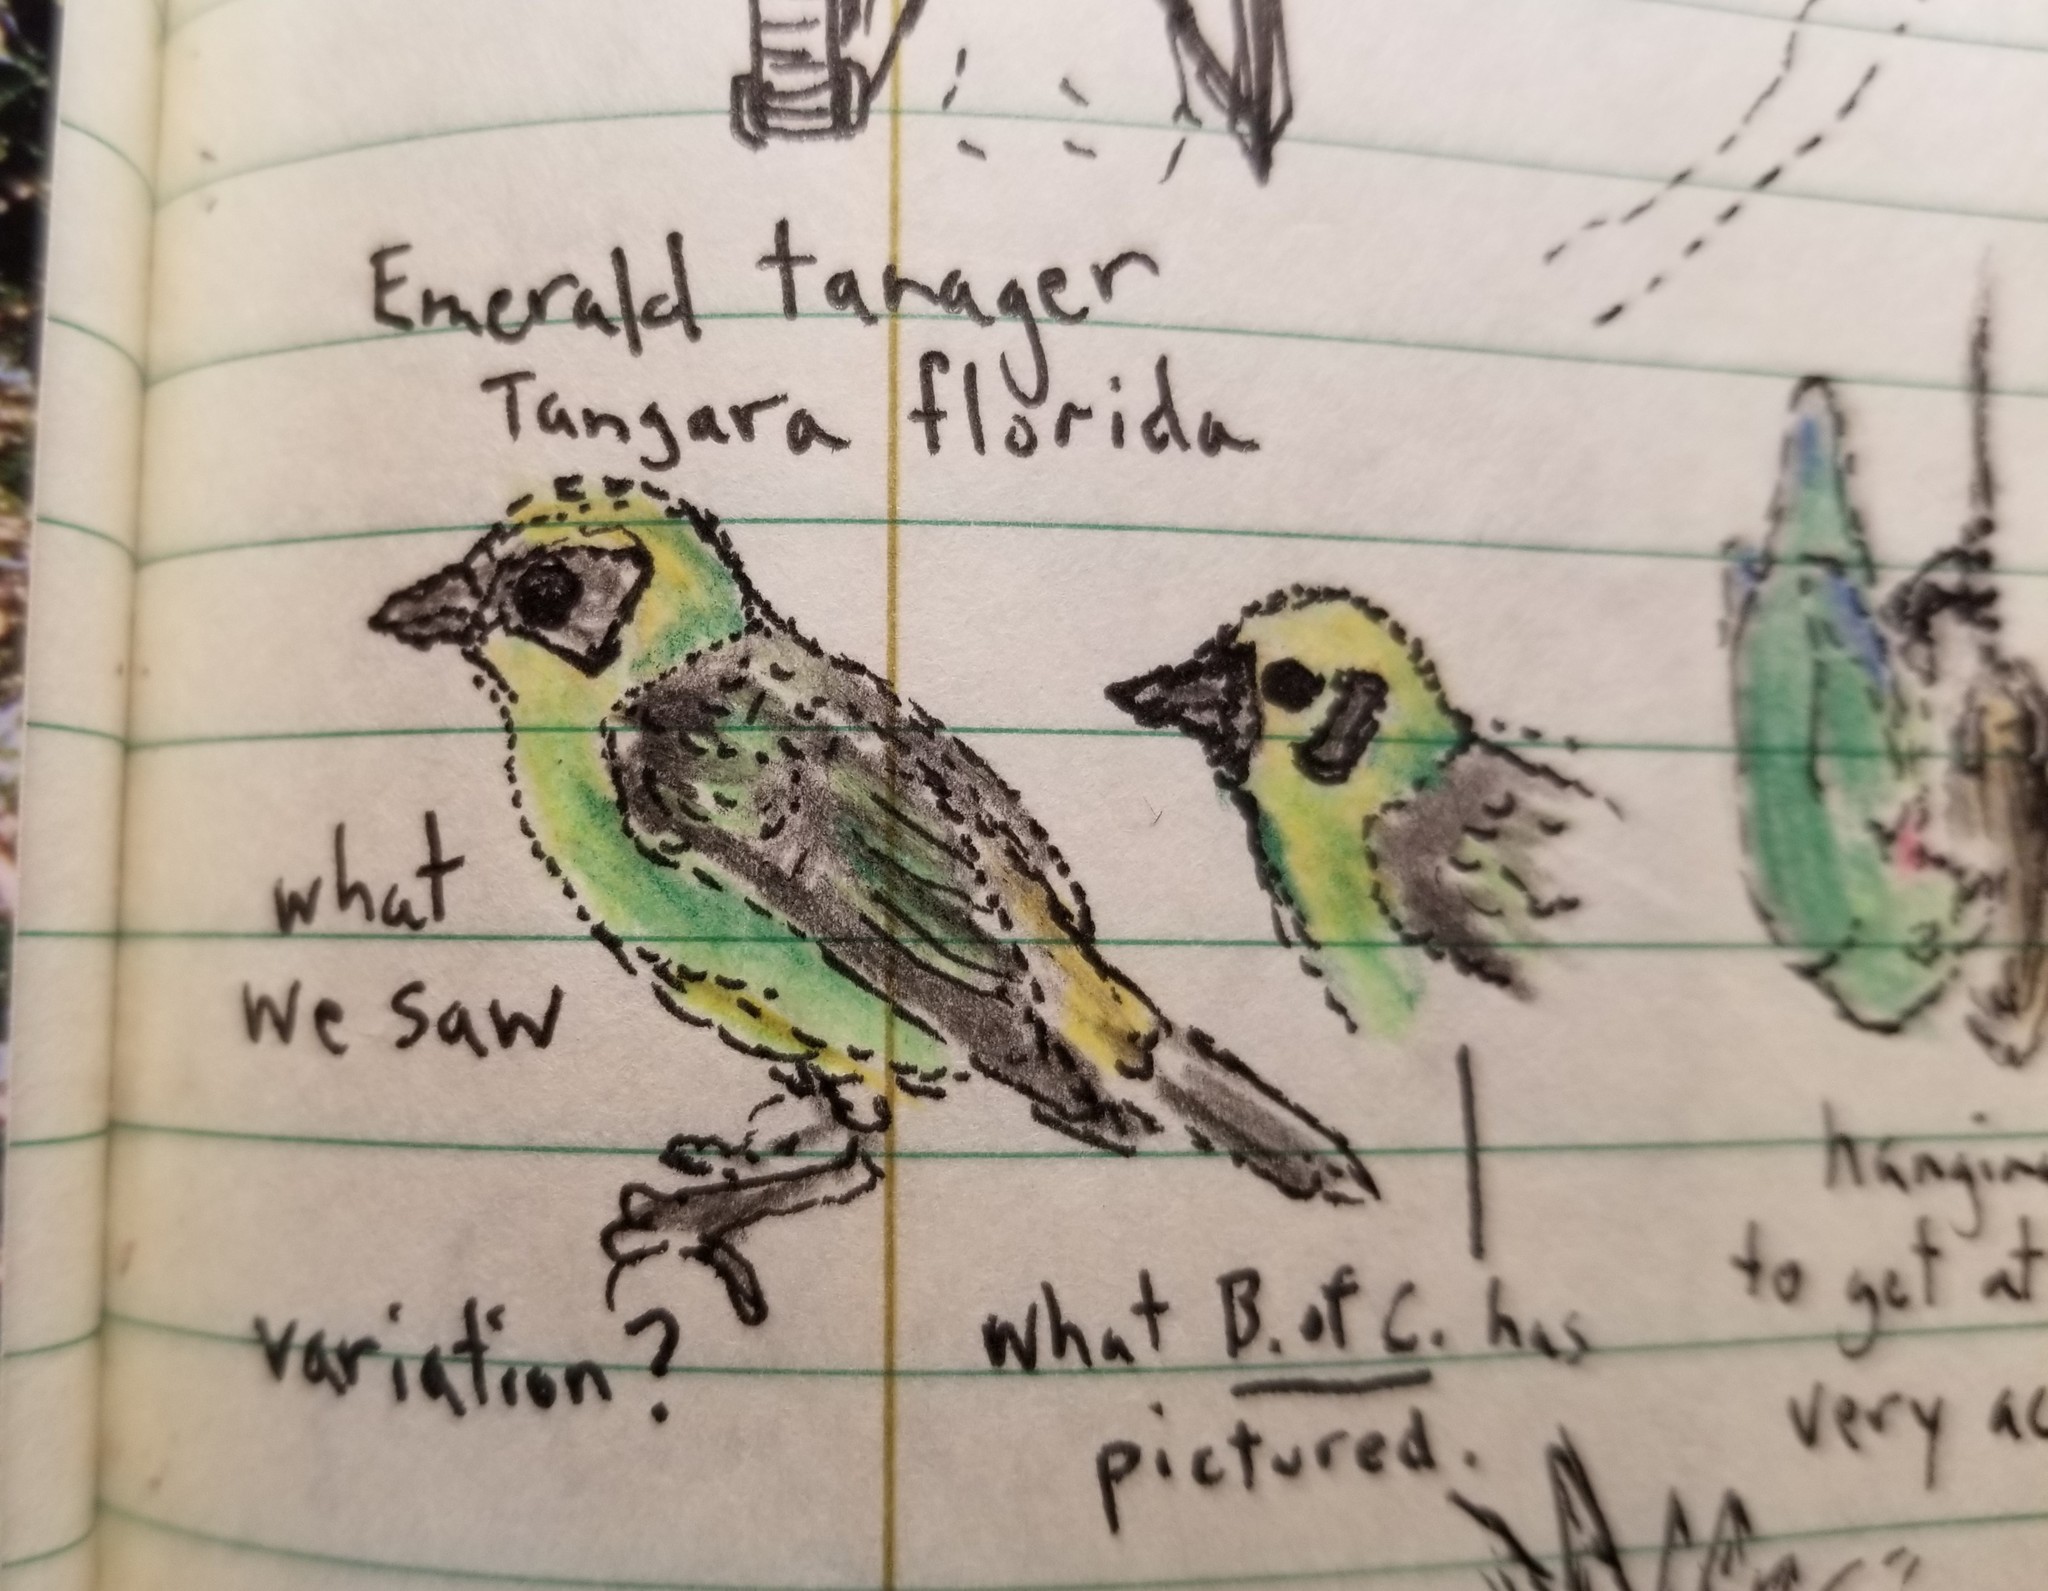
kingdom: Animalia
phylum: Chordata
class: Aves
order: Passeriformes
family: Thraupidae
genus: Tangara
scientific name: Tangara florida
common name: Emerald tanager
